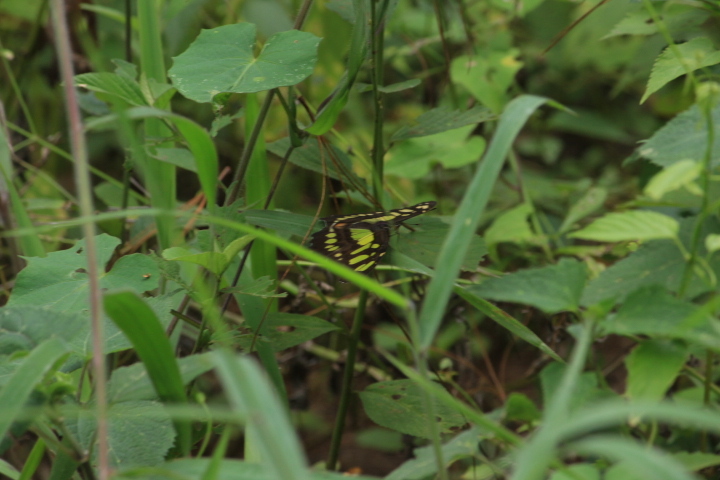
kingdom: Animalia
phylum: Arthropoda
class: Insecta
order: Lepidoptera
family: Nymphalidae
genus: Siproeta
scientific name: Siproeta stelenes
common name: Malachite
